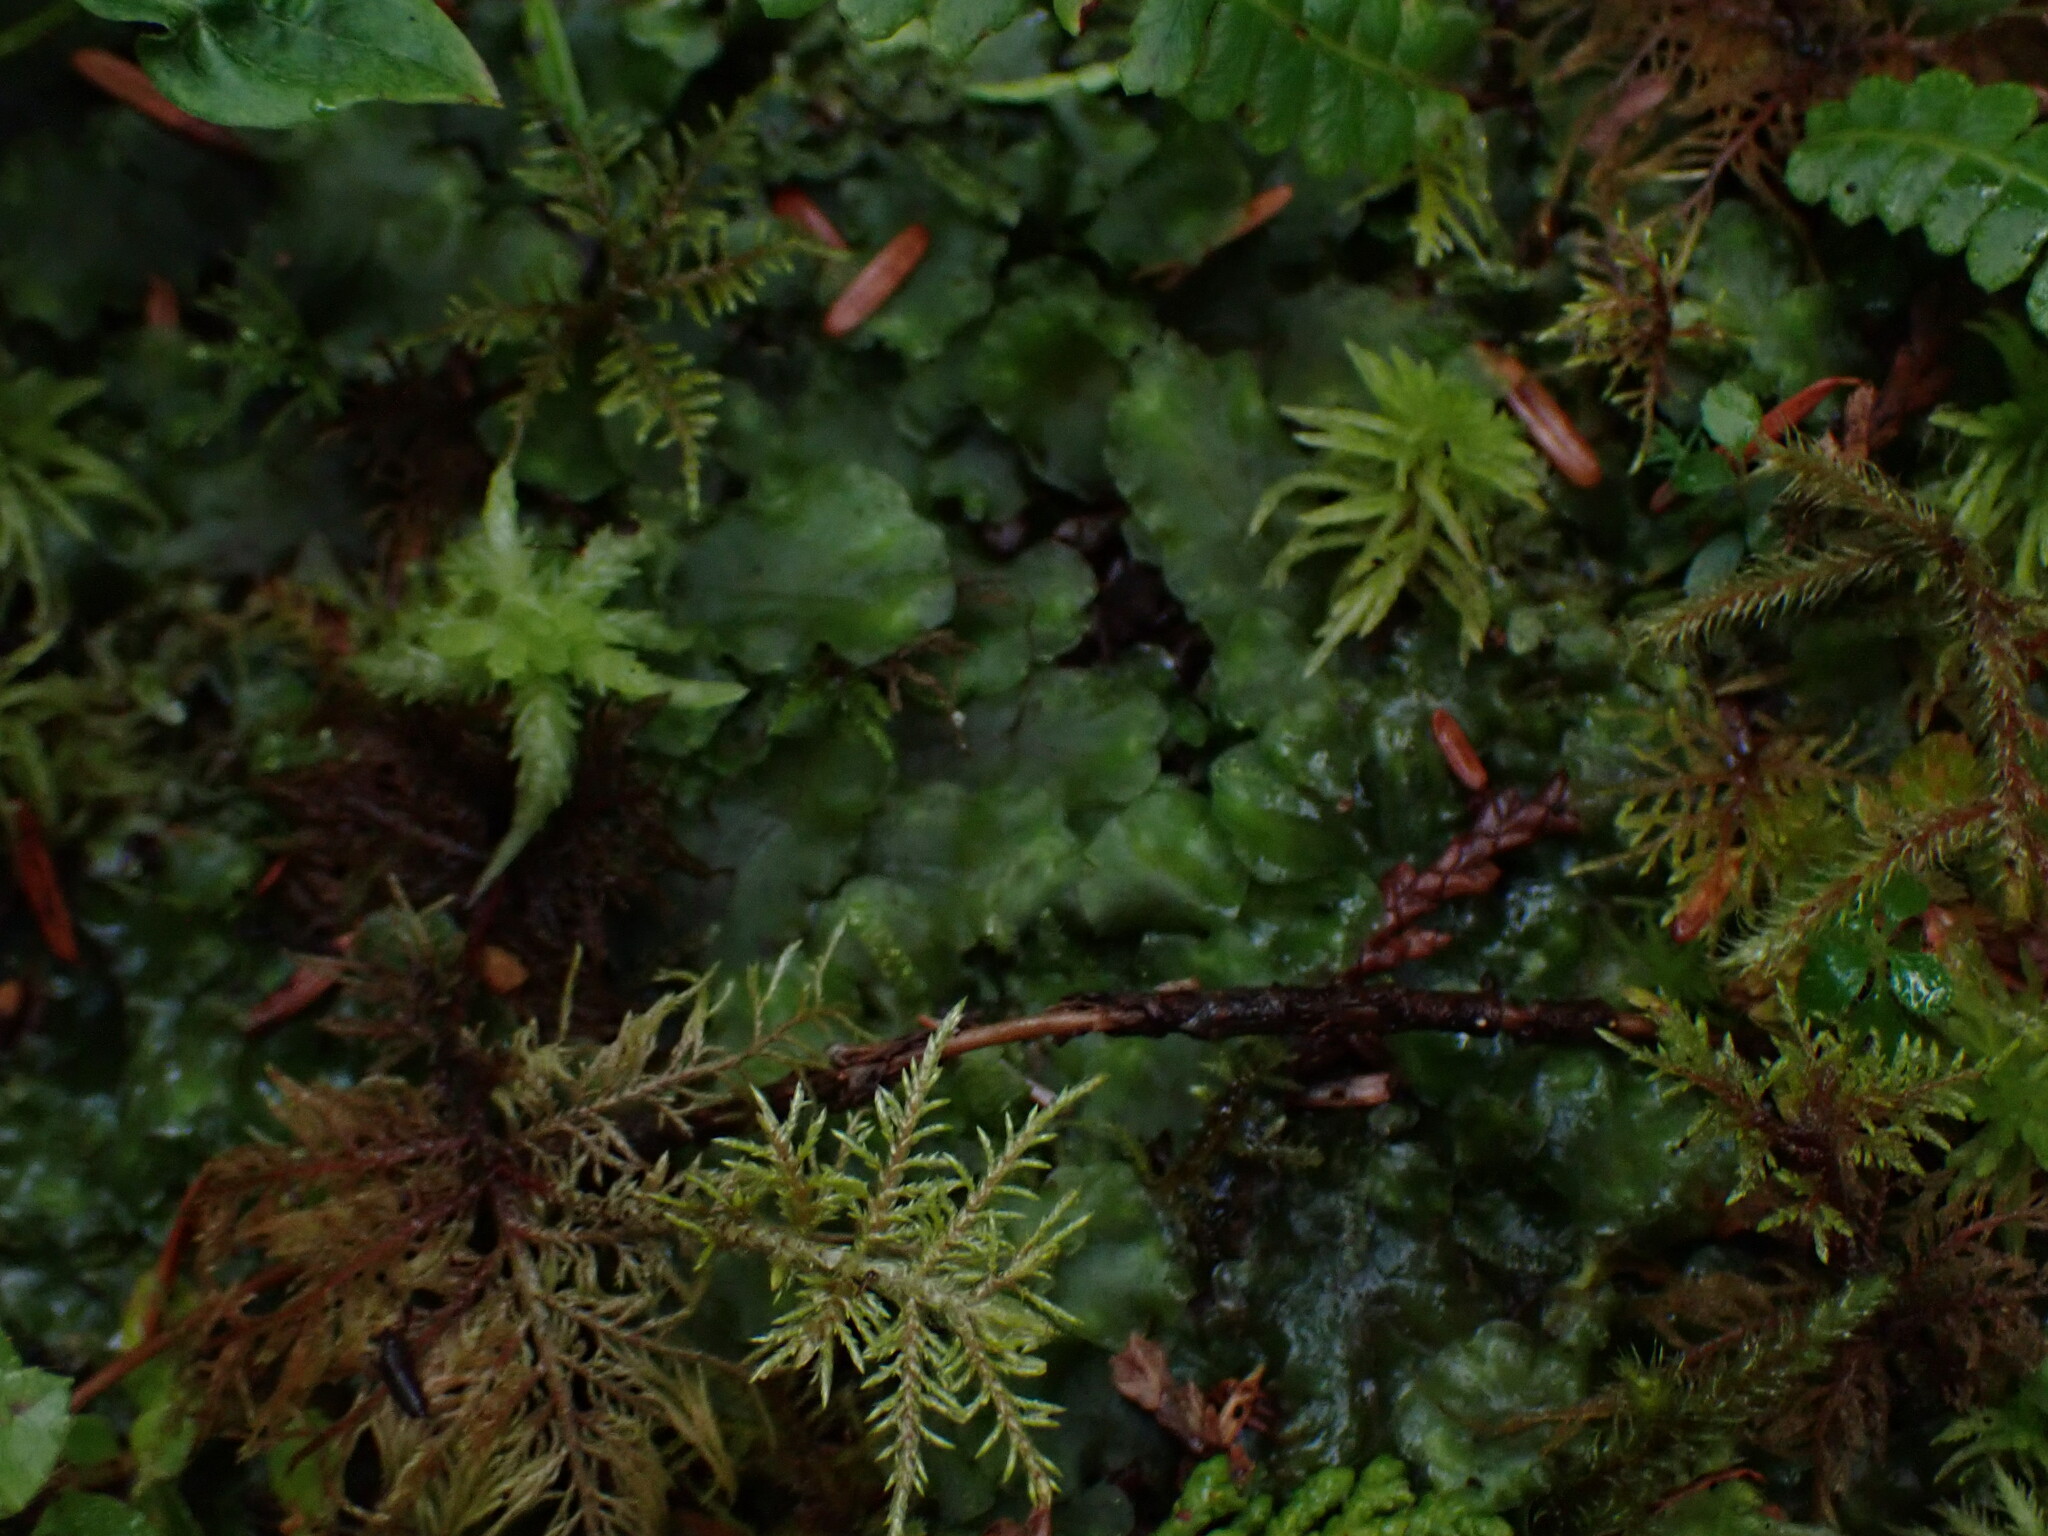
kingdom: Plantae
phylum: Marchantiophyta
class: Jungermanniopsida
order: Pelliales
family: Pelliaceae
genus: Pellia
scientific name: Pellia neesiana
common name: Nees  pellia
